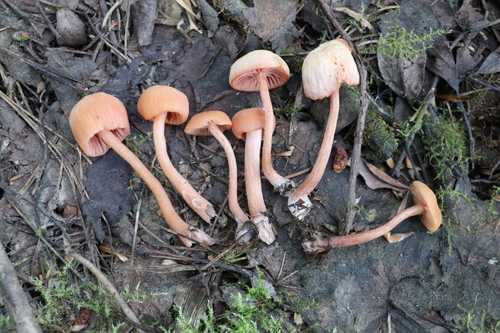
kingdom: Fungi
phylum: Basidiomycota
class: Agaricomycetes
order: Agaricales
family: Hydnangiaceae
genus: Laccaria
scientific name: Laccaria laccata
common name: Deceiver
